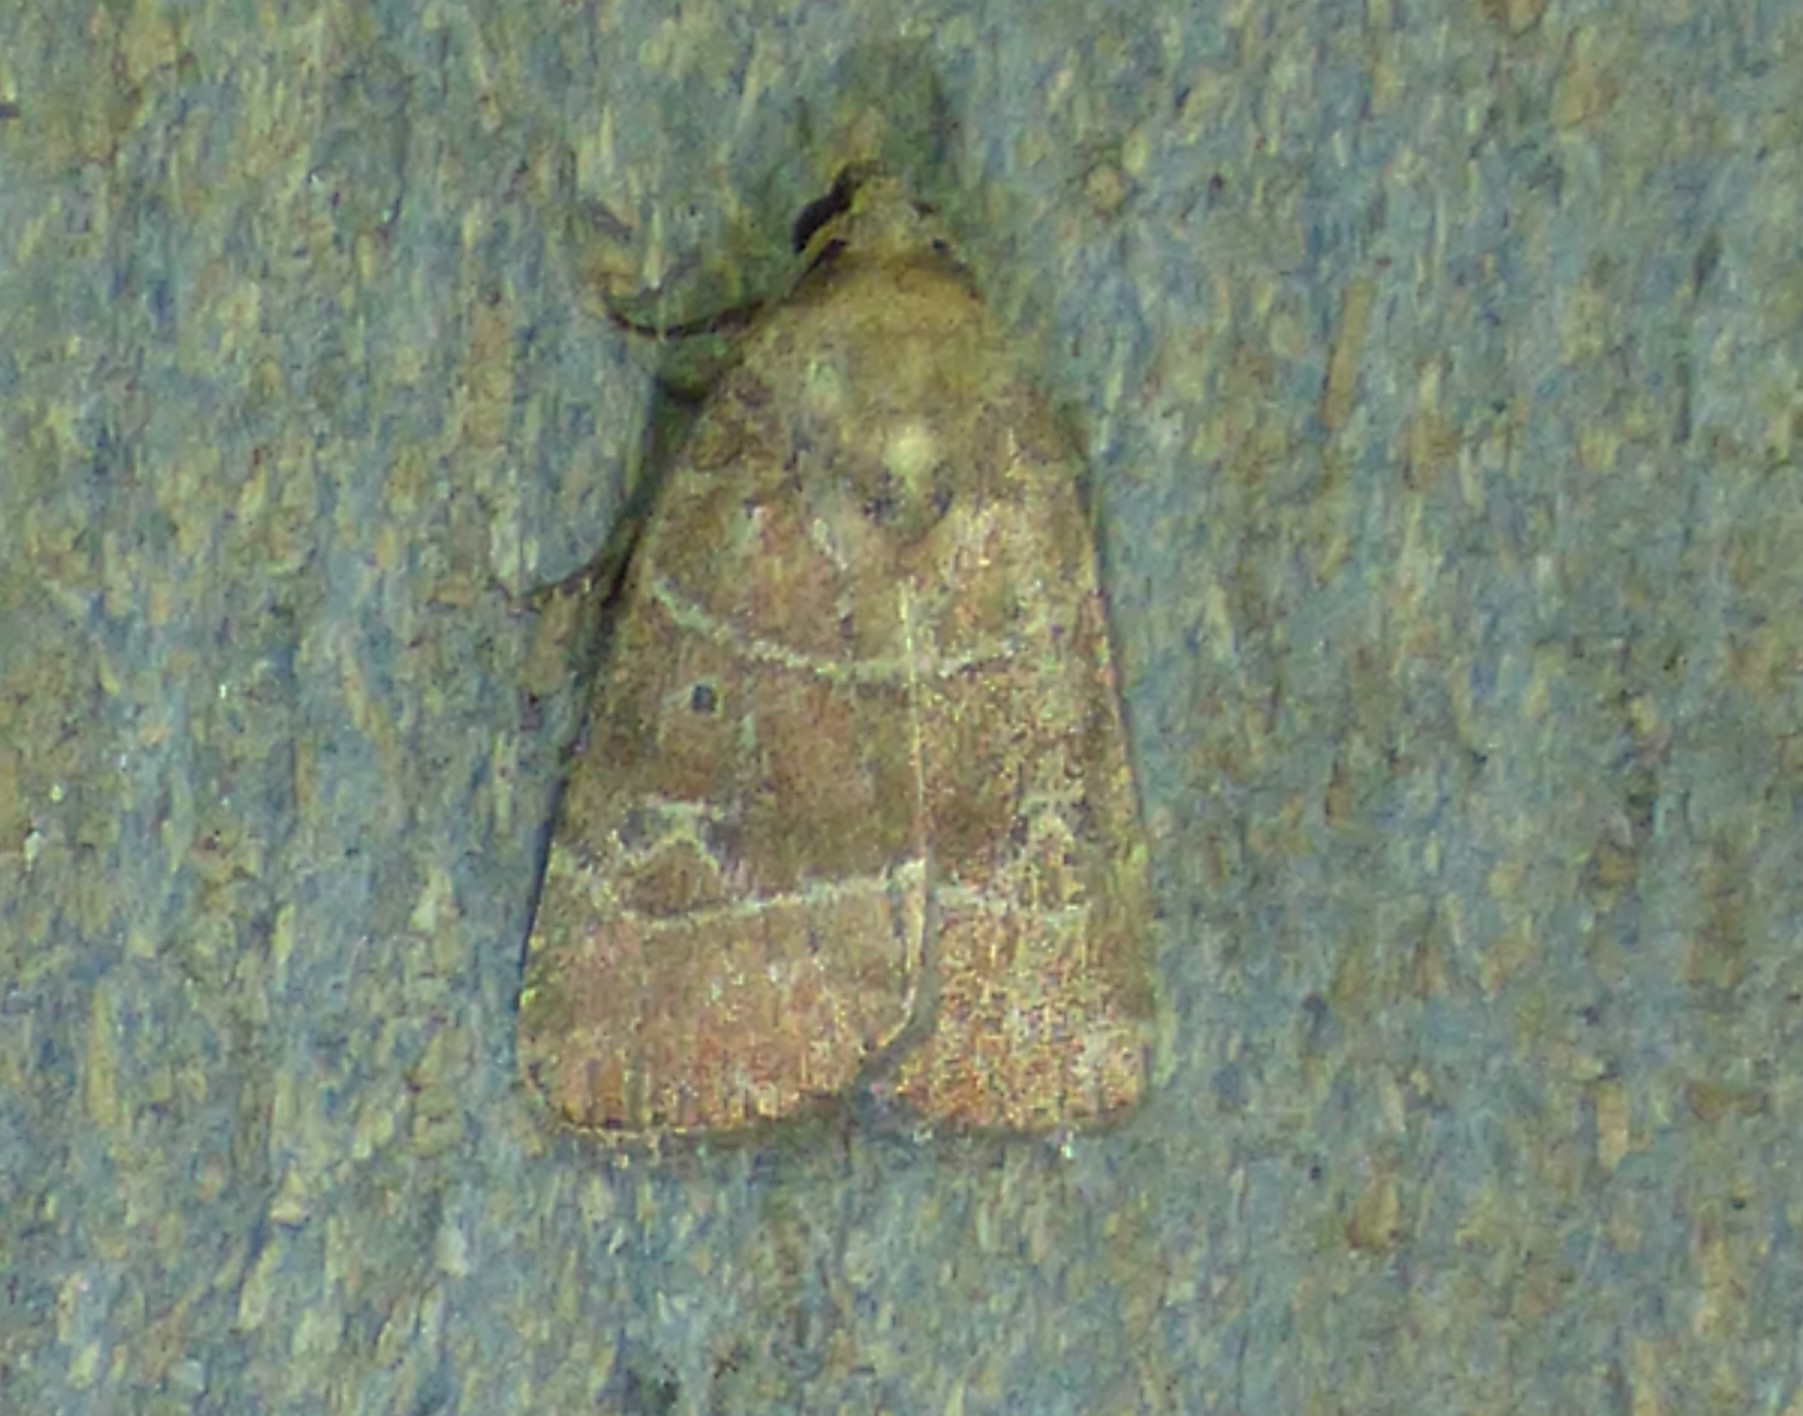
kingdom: Animalia
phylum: Arthropoda
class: Insecta
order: Lepidoptera
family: Noctuidae
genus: Elaphria
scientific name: Elaphria grata
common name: Grateful midget moth
